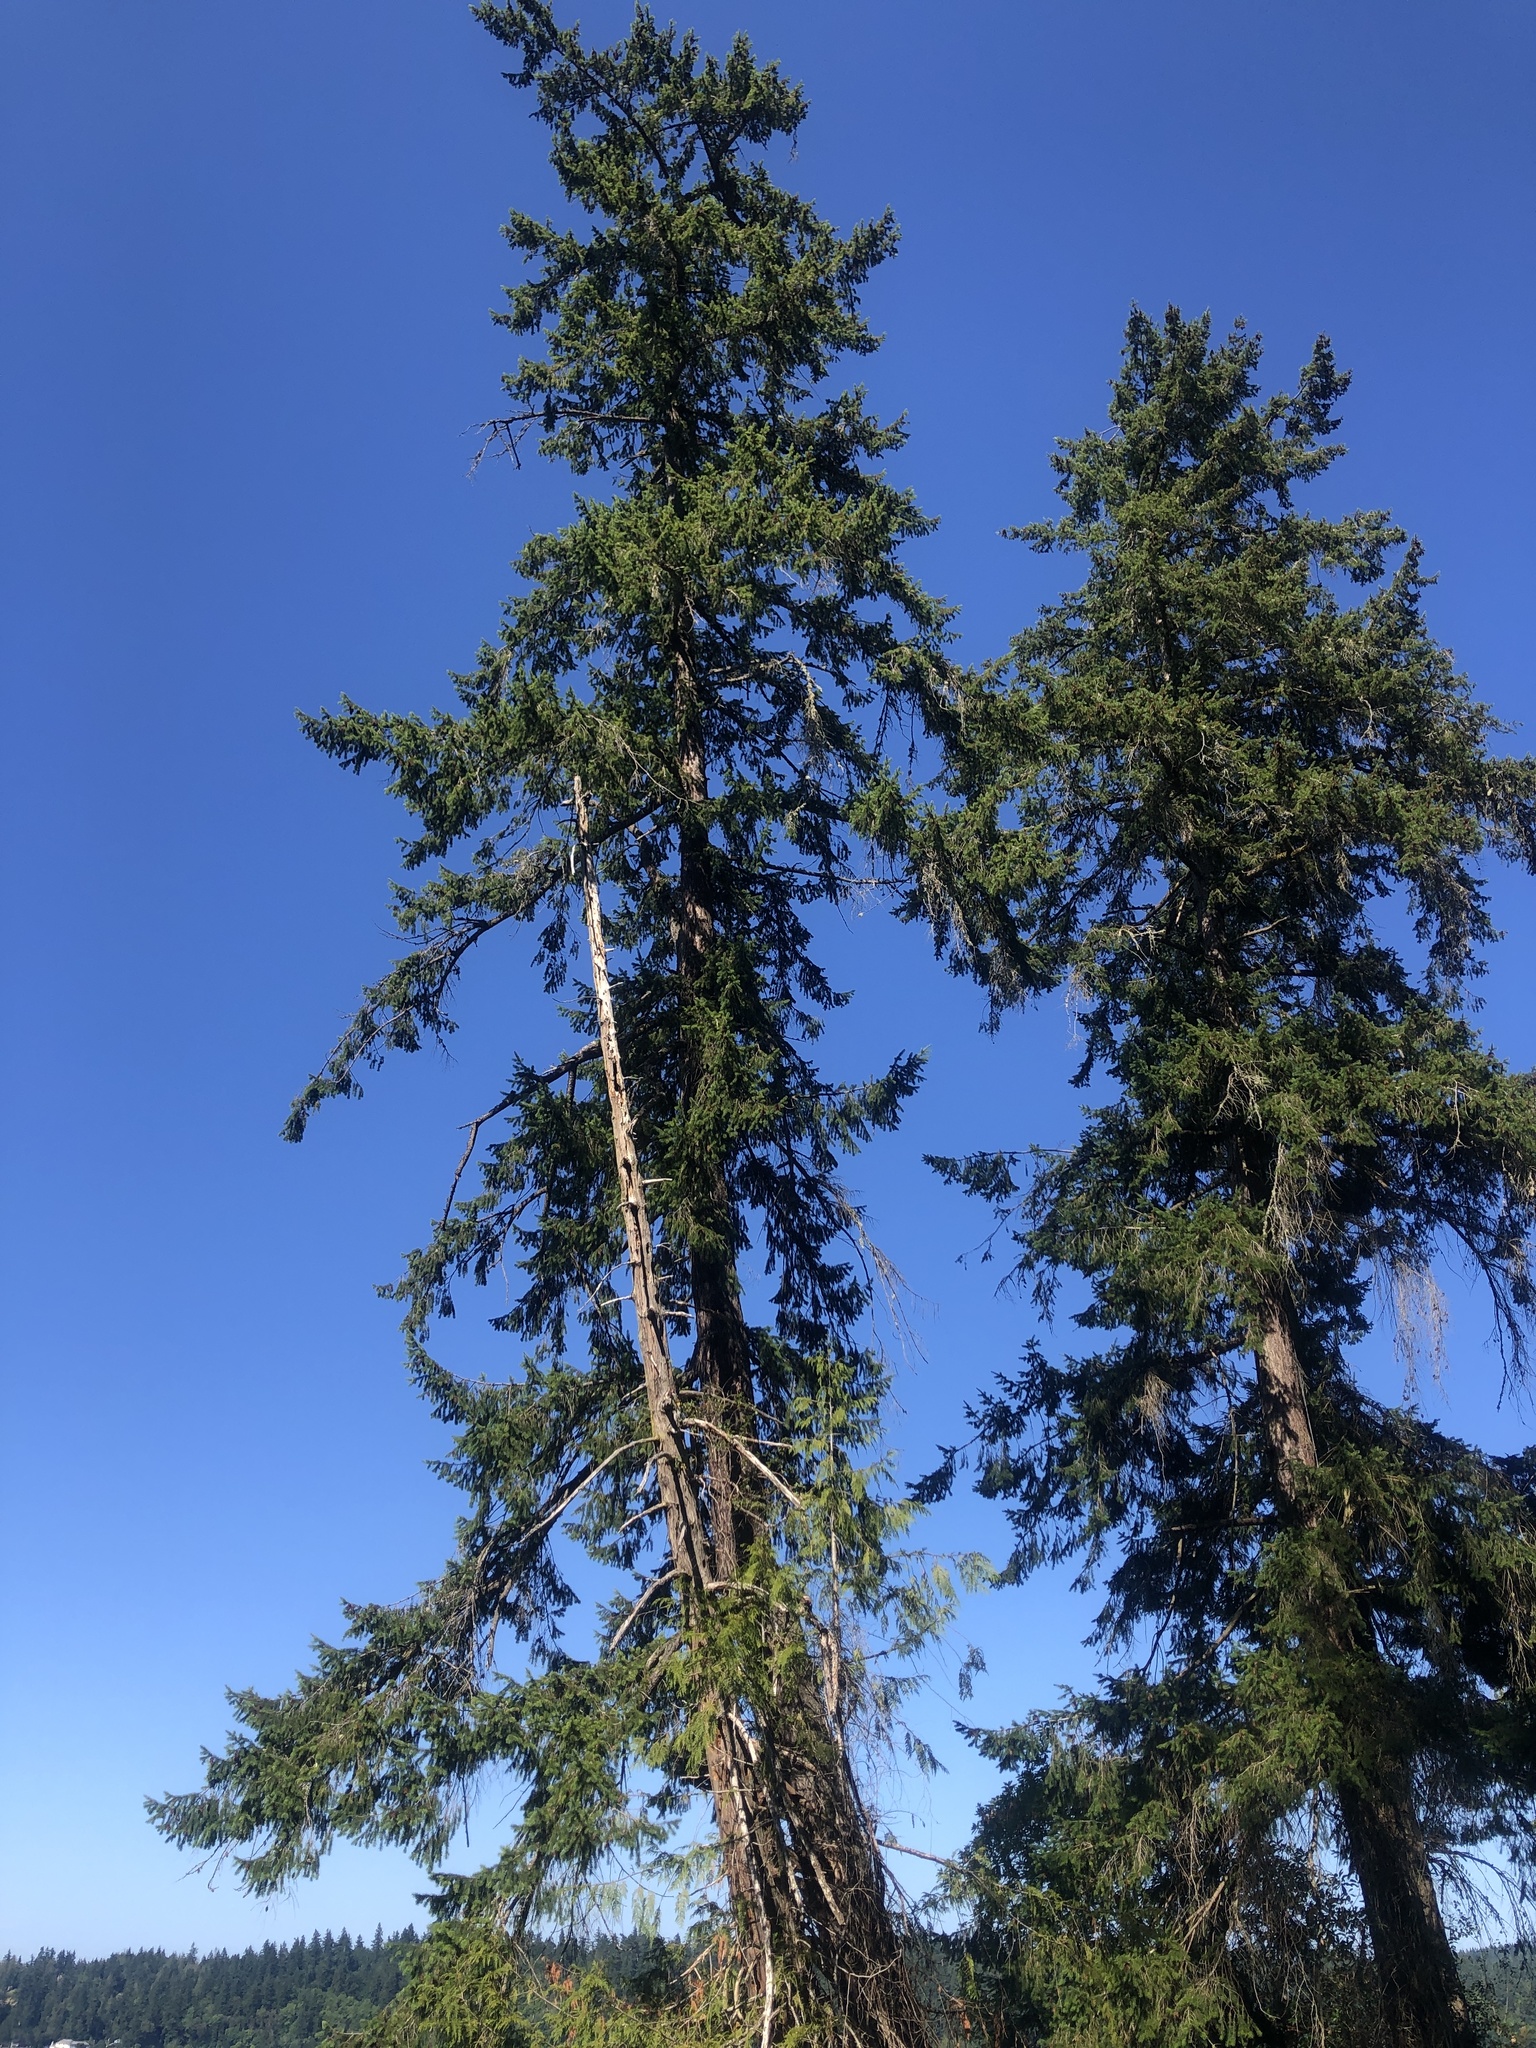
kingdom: Plantae
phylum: Tracheophyta
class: Pinopsida
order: Pinales
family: Pinaceae
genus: Pseudotsuga
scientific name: Pseudotsuga menziesii
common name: Douglas fir
